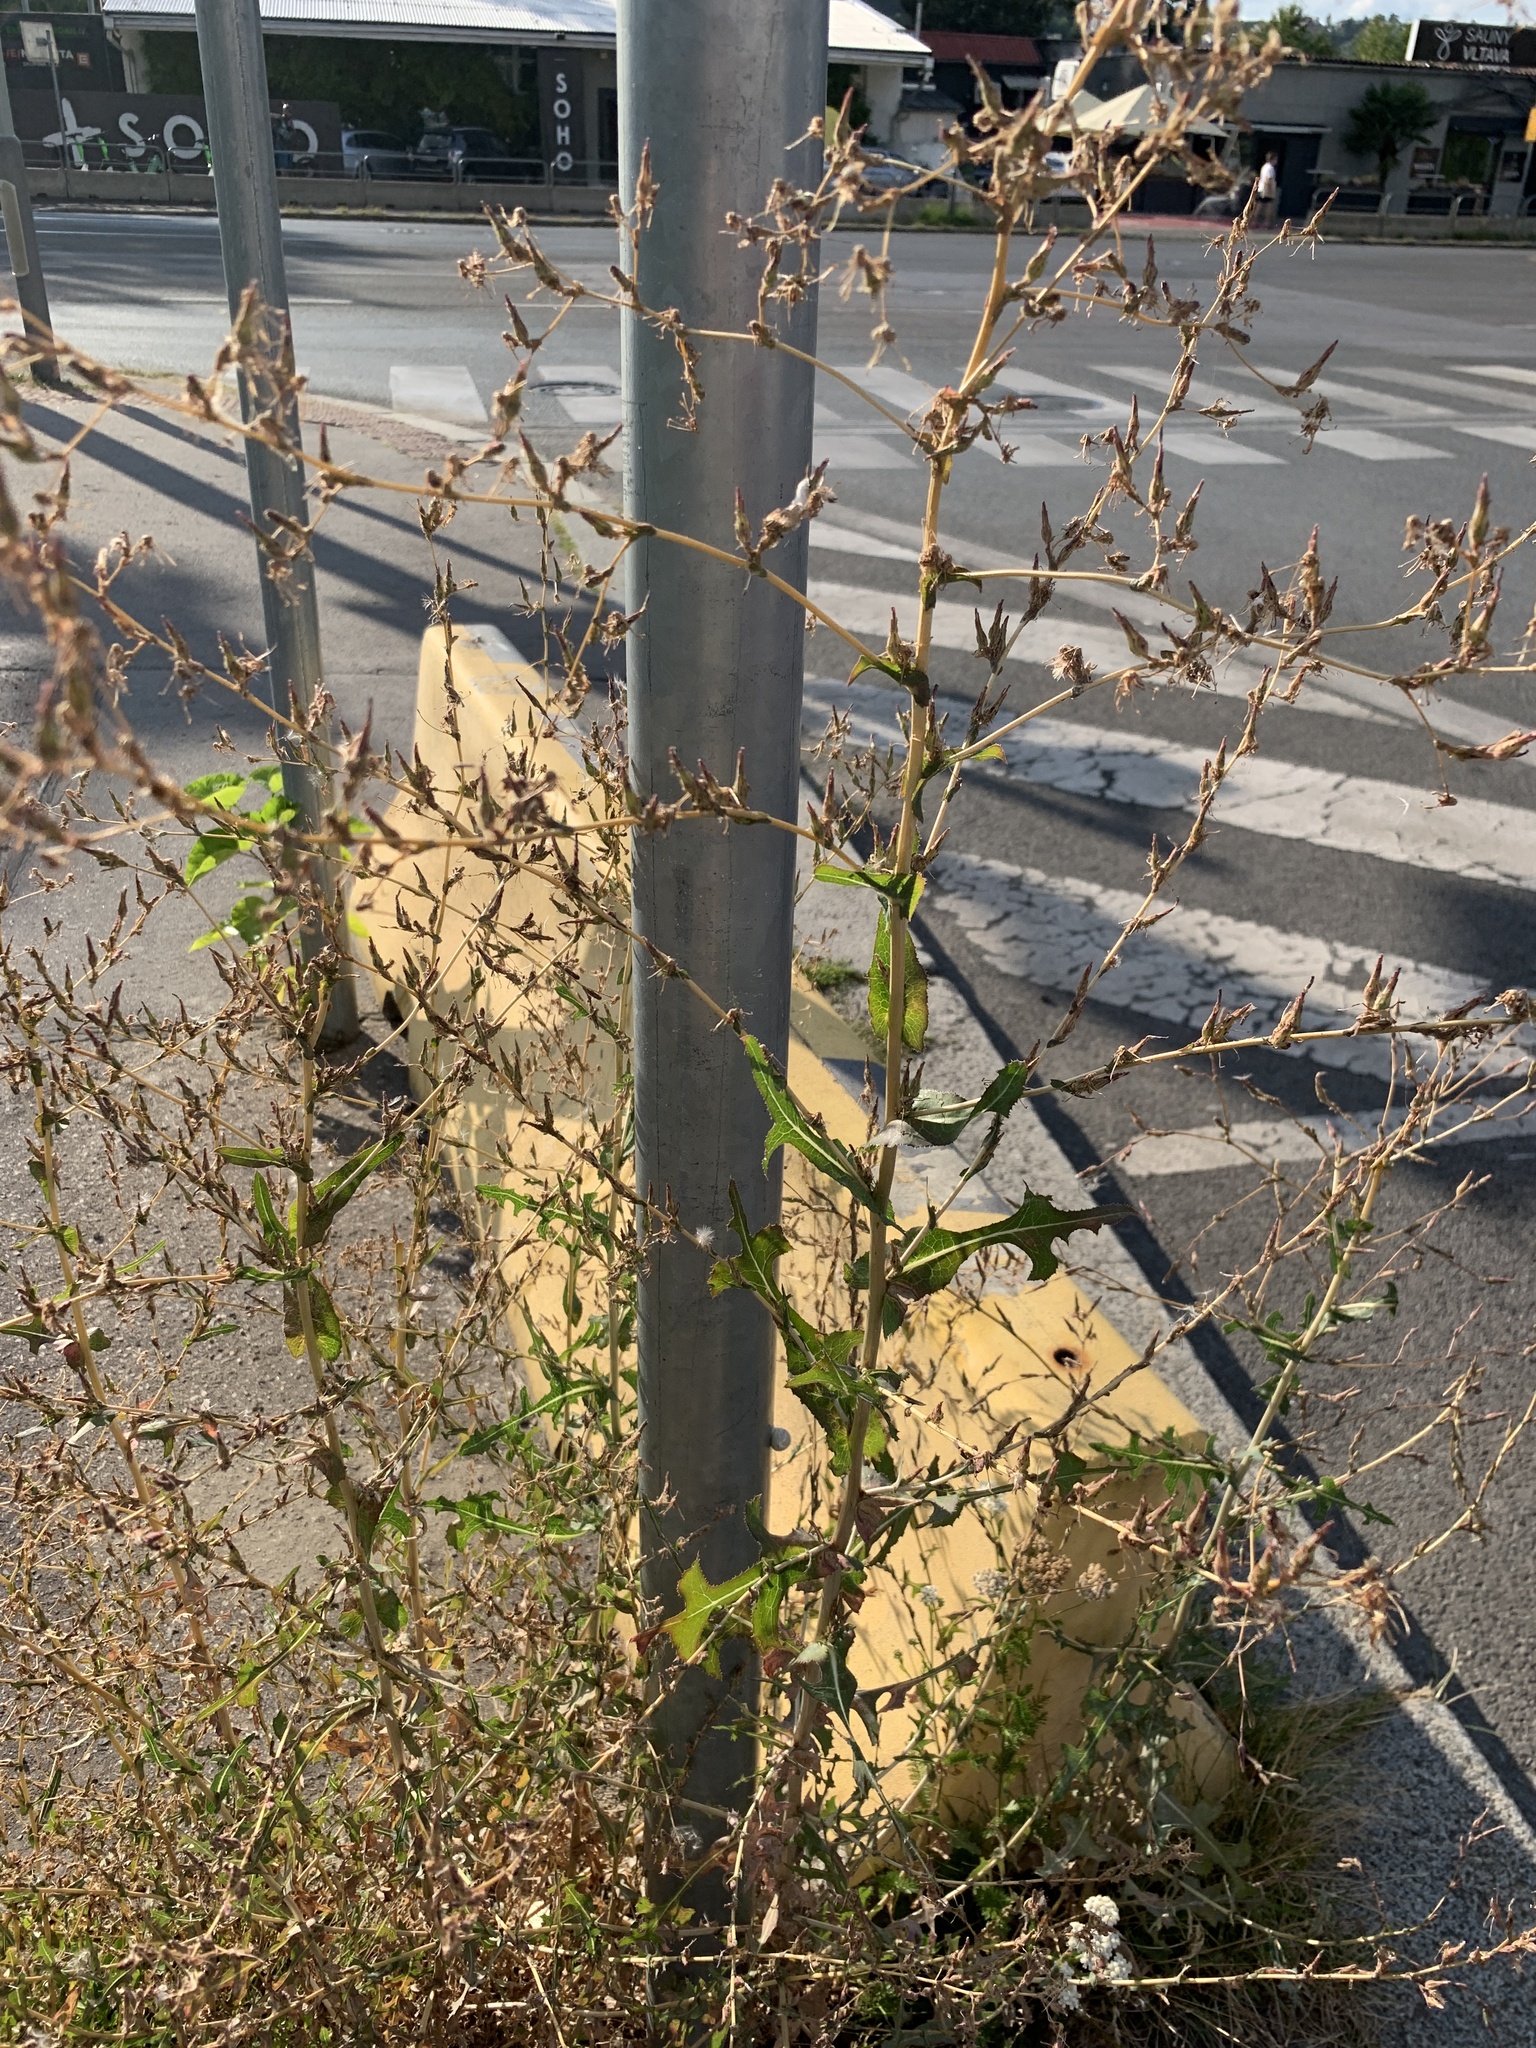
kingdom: Plantae
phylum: Tracheophyta
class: Magnoliopsida
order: Asterales
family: Asteraceae
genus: Lactuca
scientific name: Lactuca serriola
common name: Prickly lettuce
